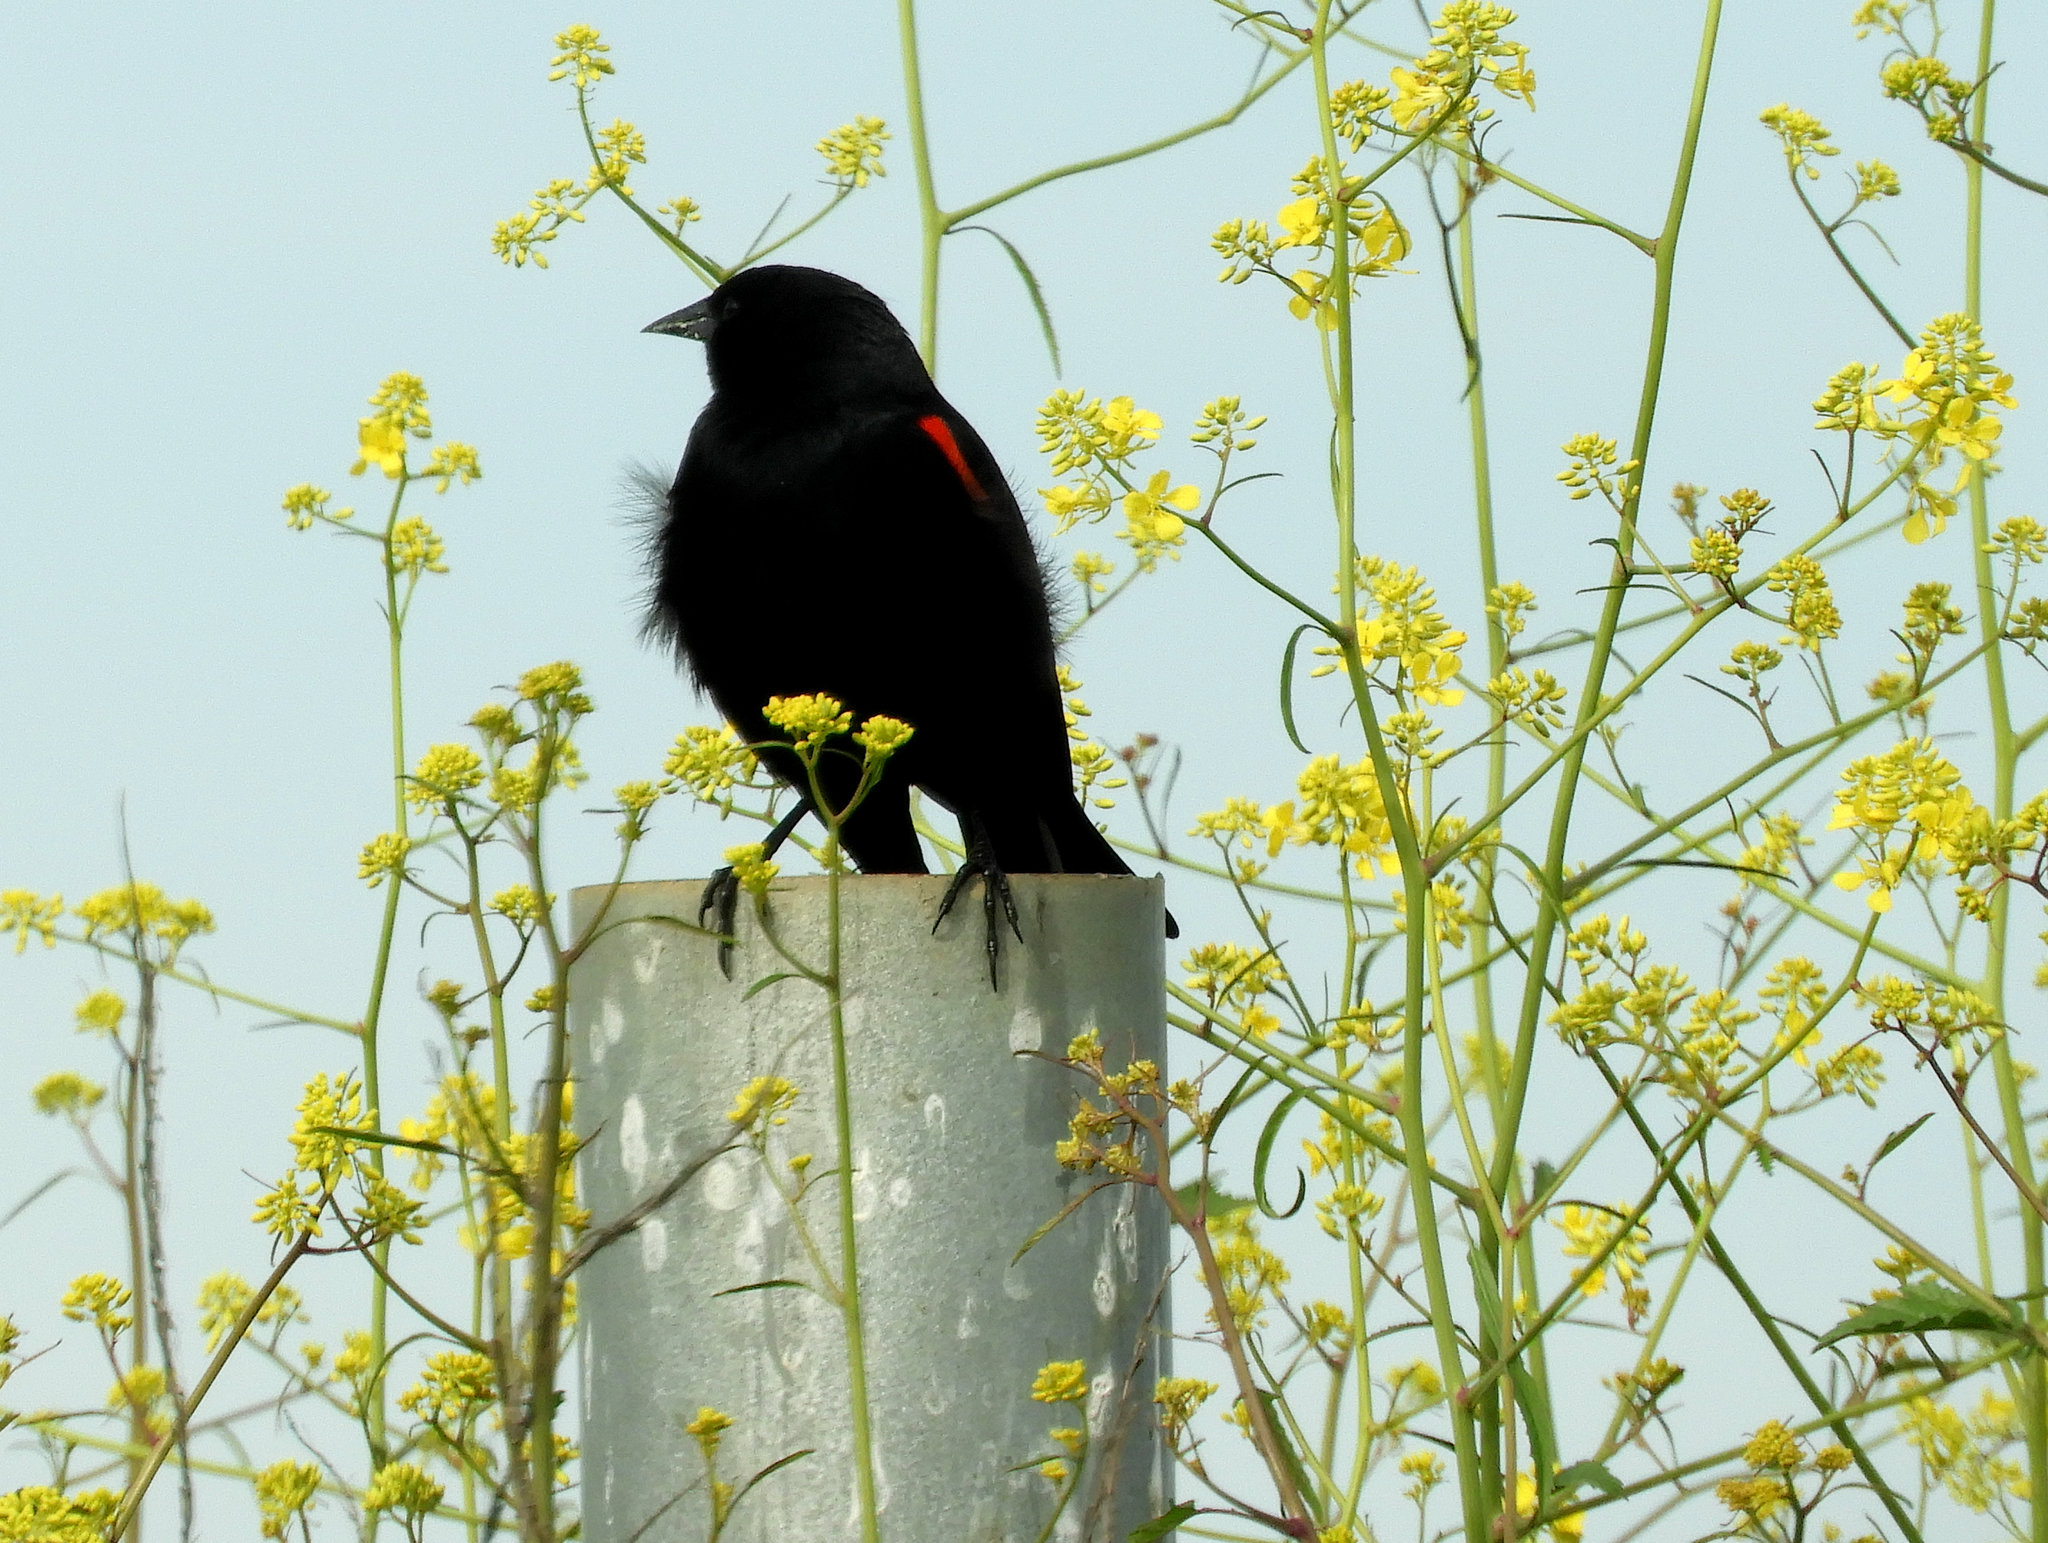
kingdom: Animalia
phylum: Chordata
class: Aves
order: Passeriformes
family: Icteridae
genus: Agelaius
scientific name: Agelaius phoeniceus
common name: Red-winged blackbird
